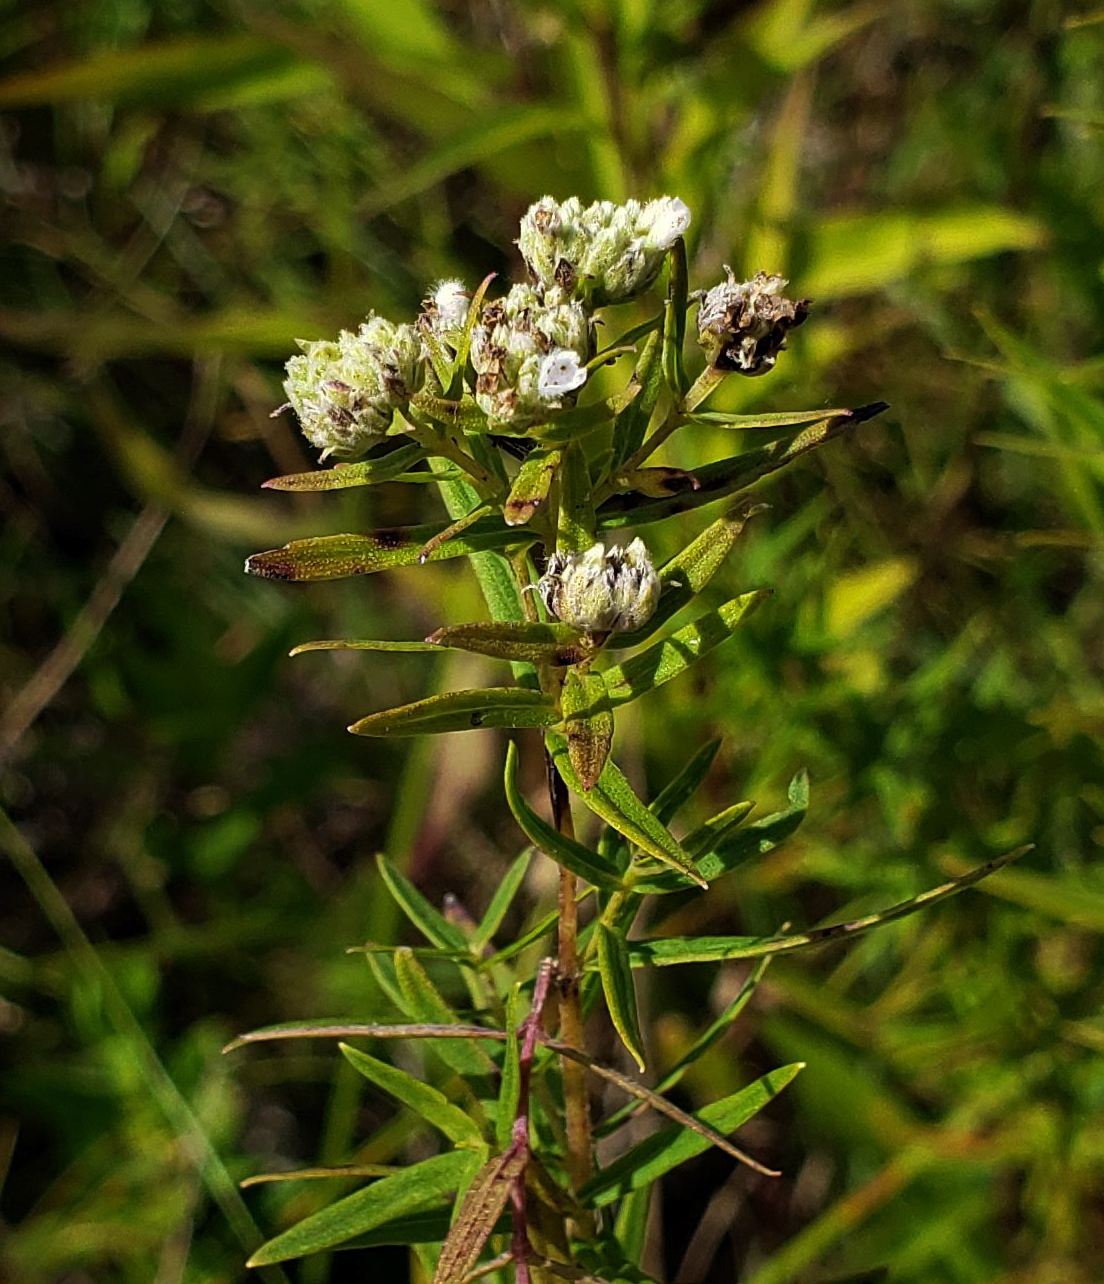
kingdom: Plantae
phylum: Tracheophyta
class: Magnoliopsida
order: Lamiales
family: Lamiaceae
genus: Pycnanthemum
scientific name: Pycnanthemum virginianum
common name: Virginia mountain-mint
